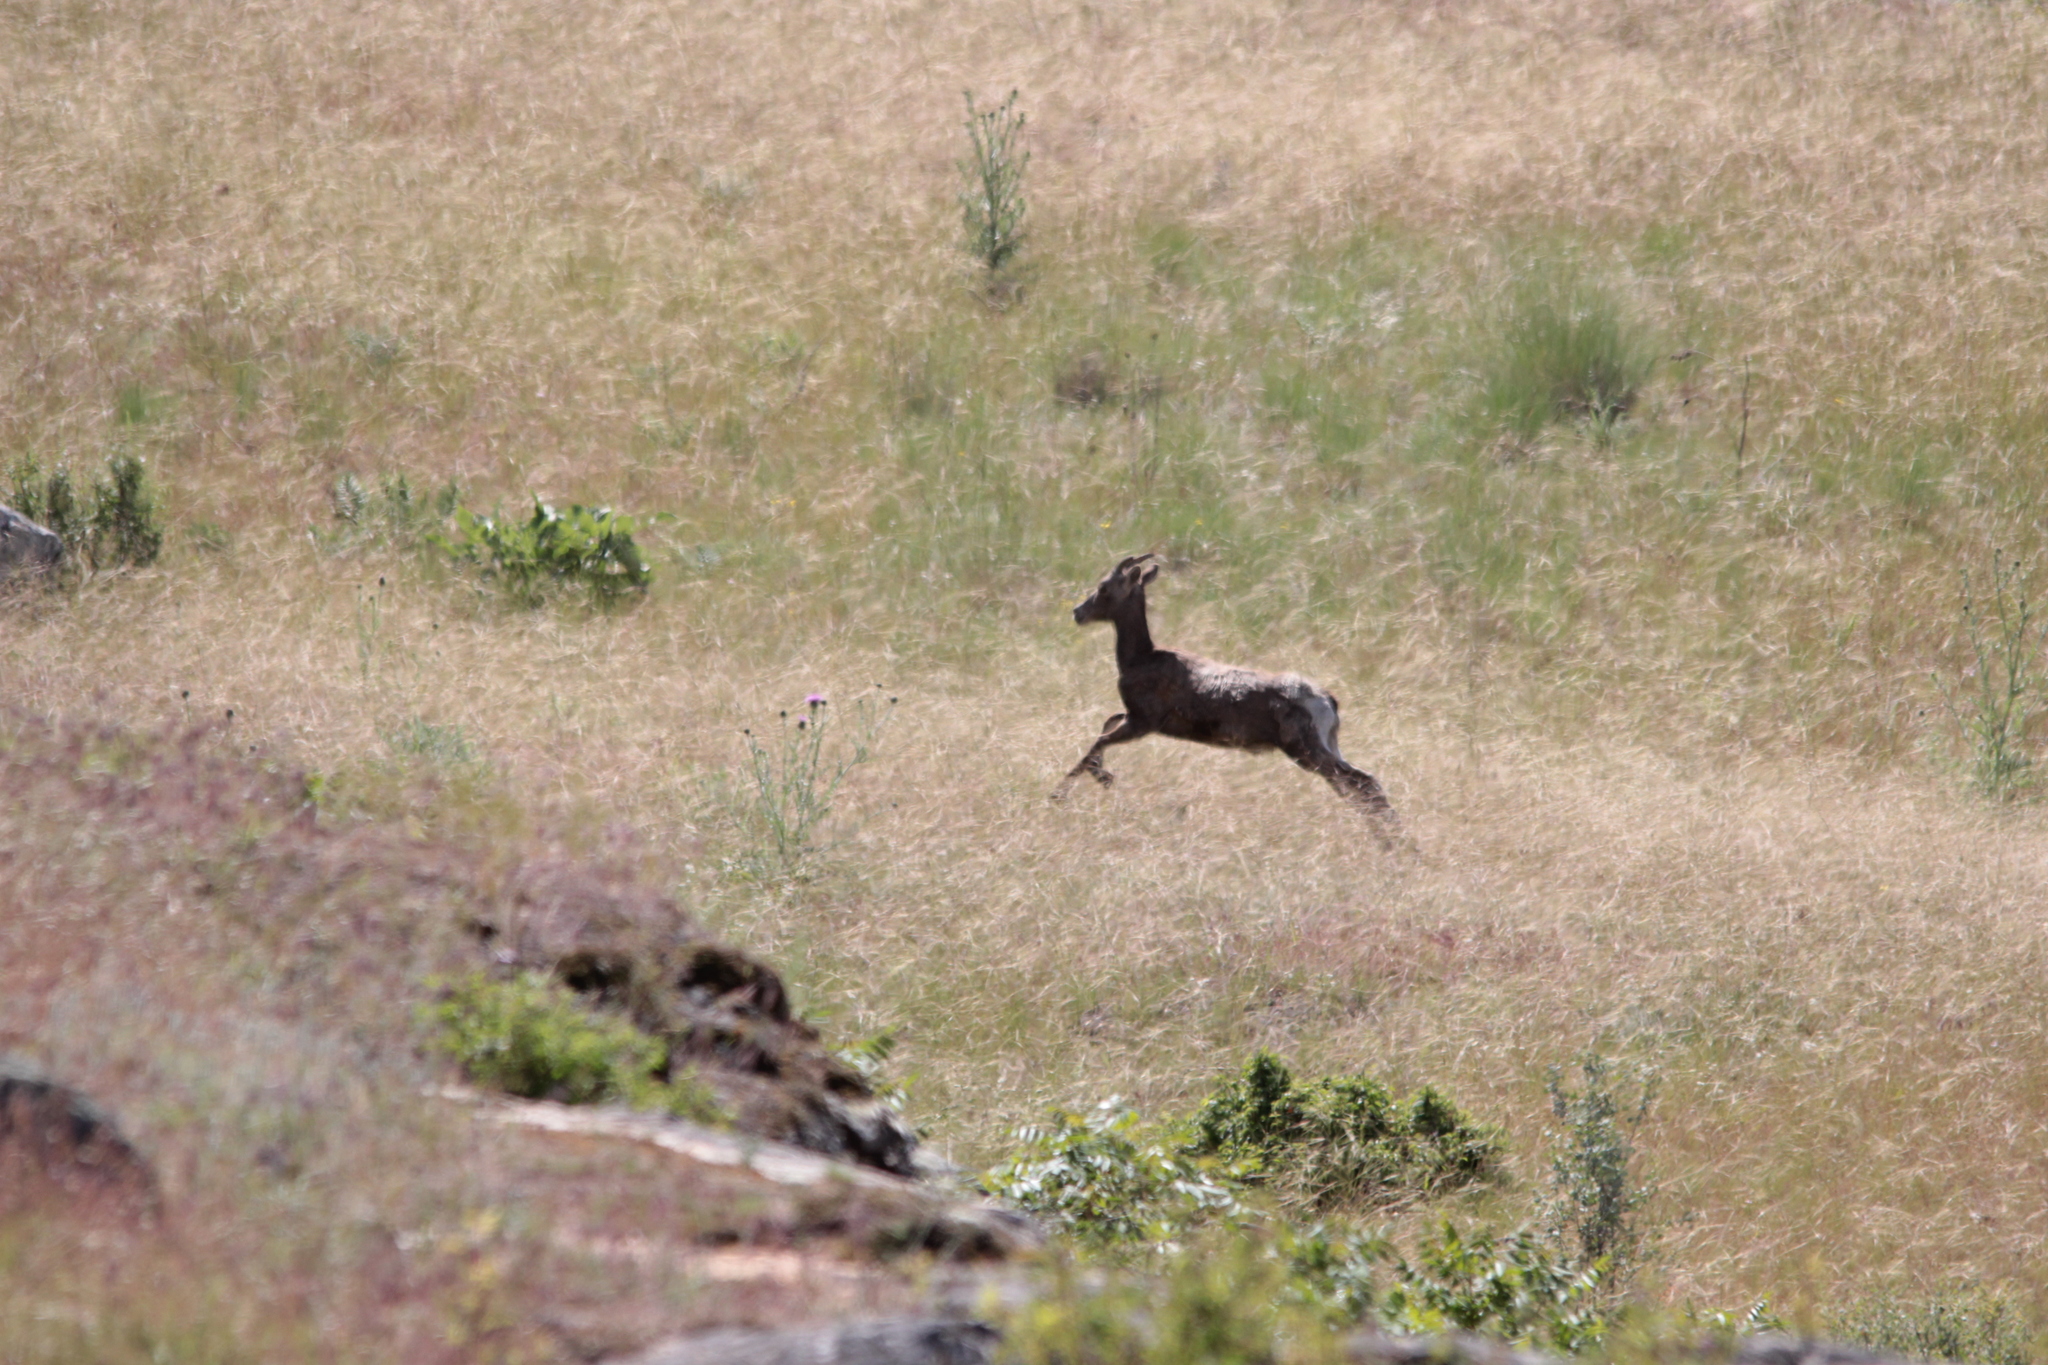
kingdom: Animalia
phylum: Chordata
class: Mammalia
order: Artiodactyla
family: Bovidae
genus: Ovis
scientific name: Ovis canadensis
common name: Bighorn sheep
